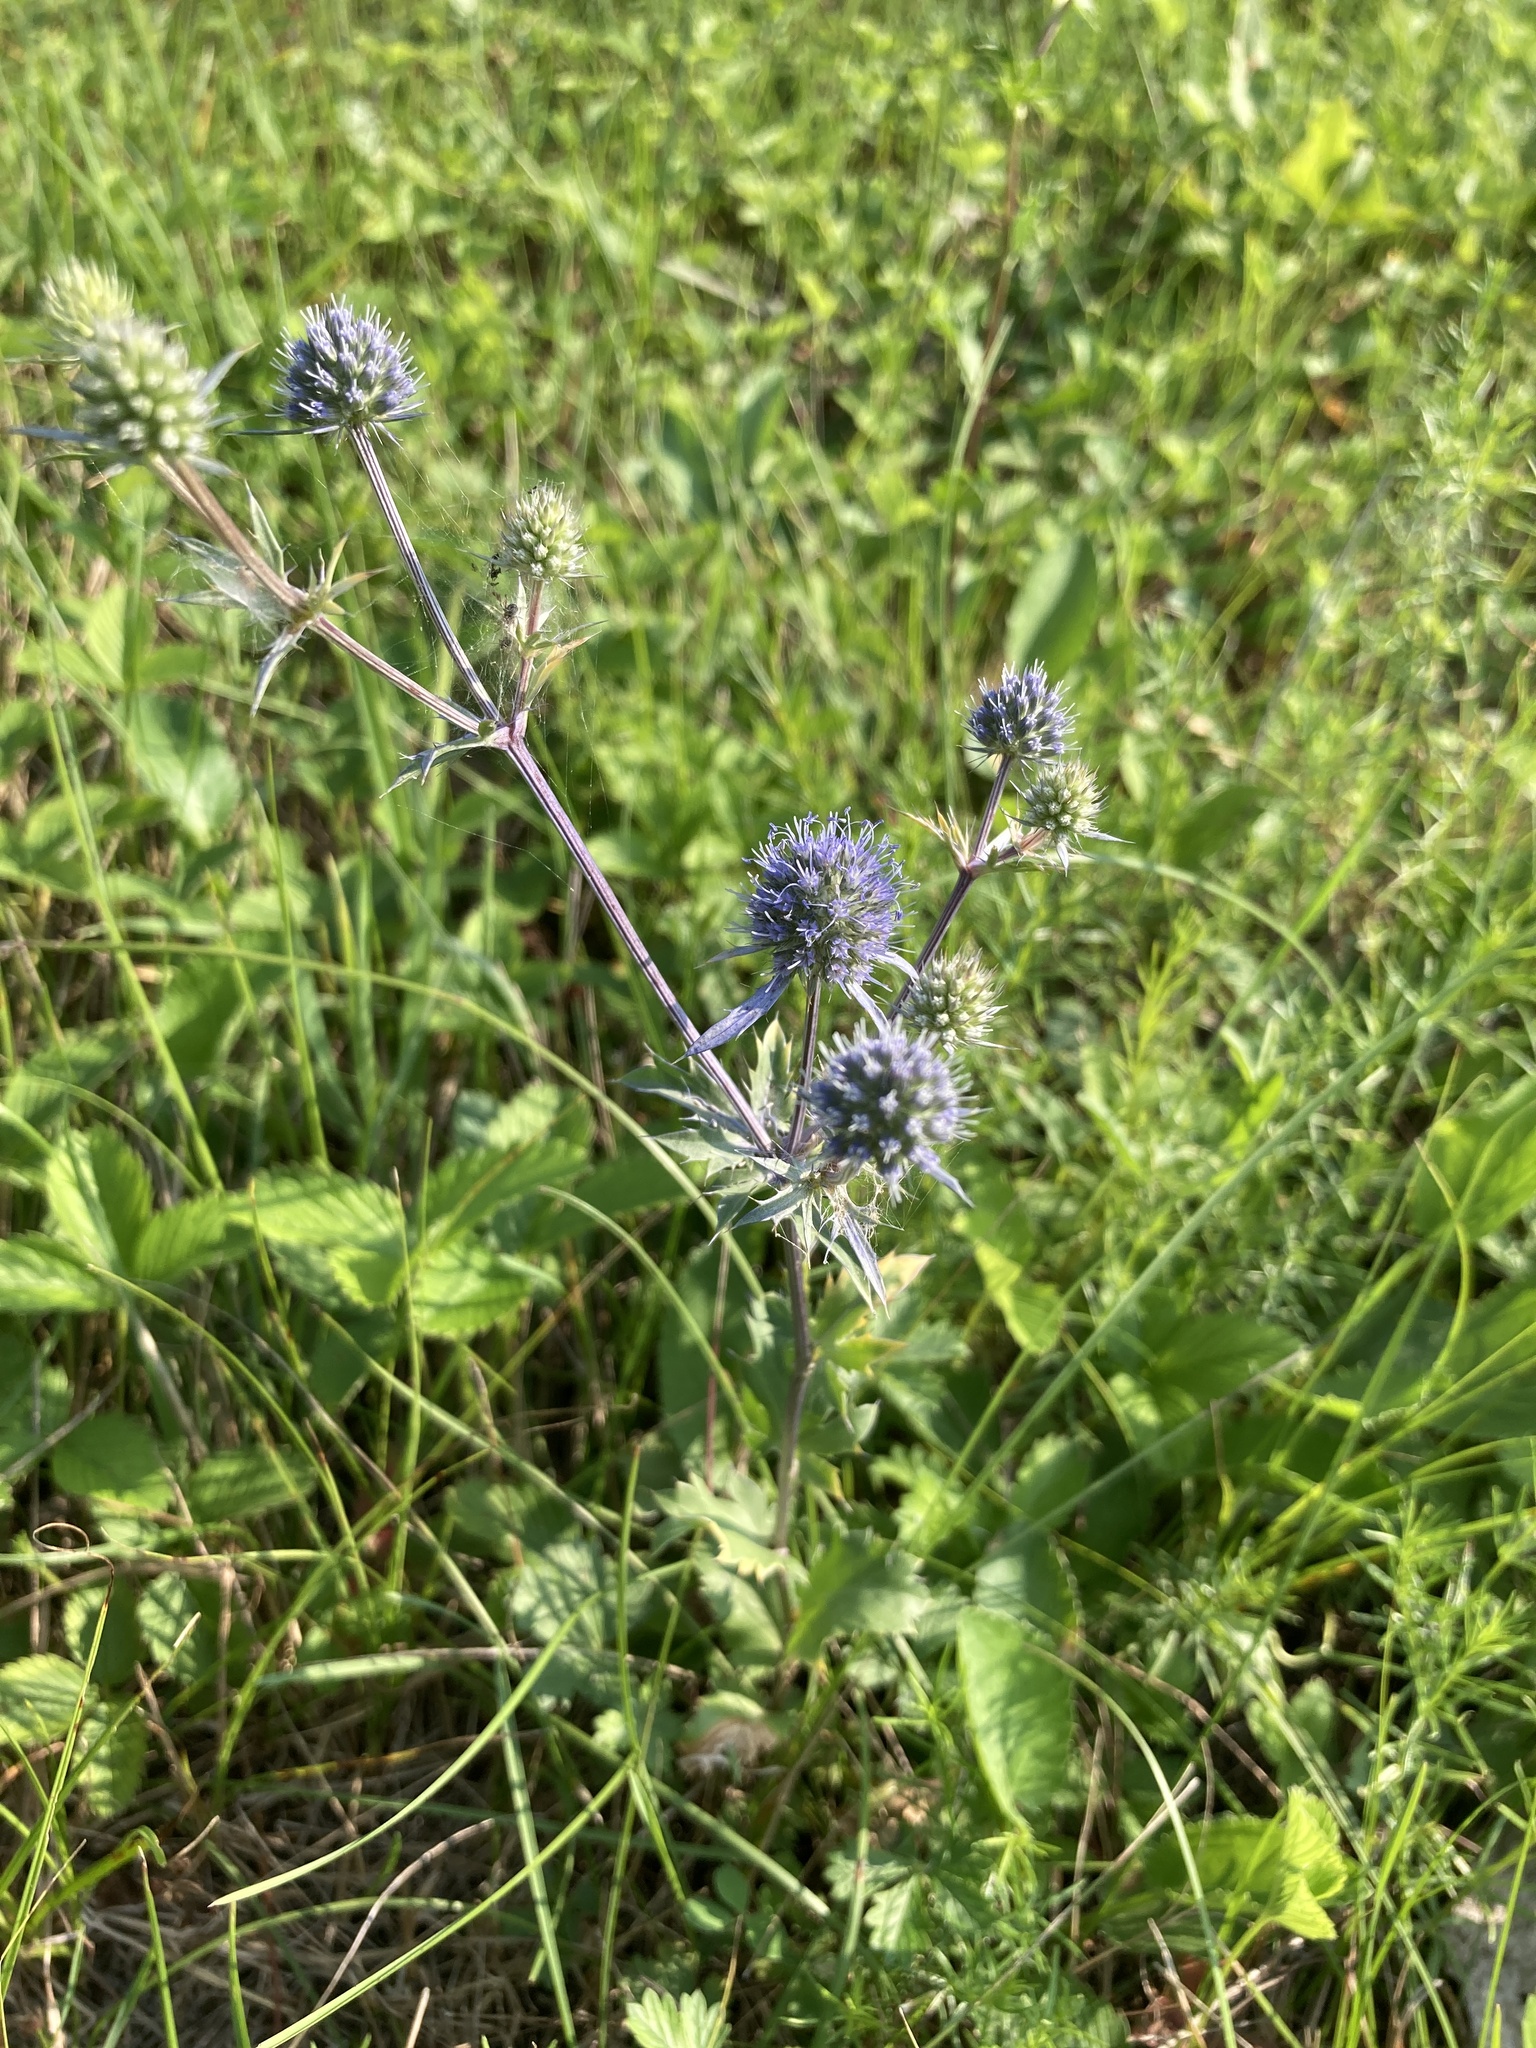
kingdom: Plantae
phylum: Tracheophyta
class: Magnoliopsida
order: Apiales
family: Apiaceae
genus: Eryngium
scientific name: Eryngium planum
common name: Blue eryngo
